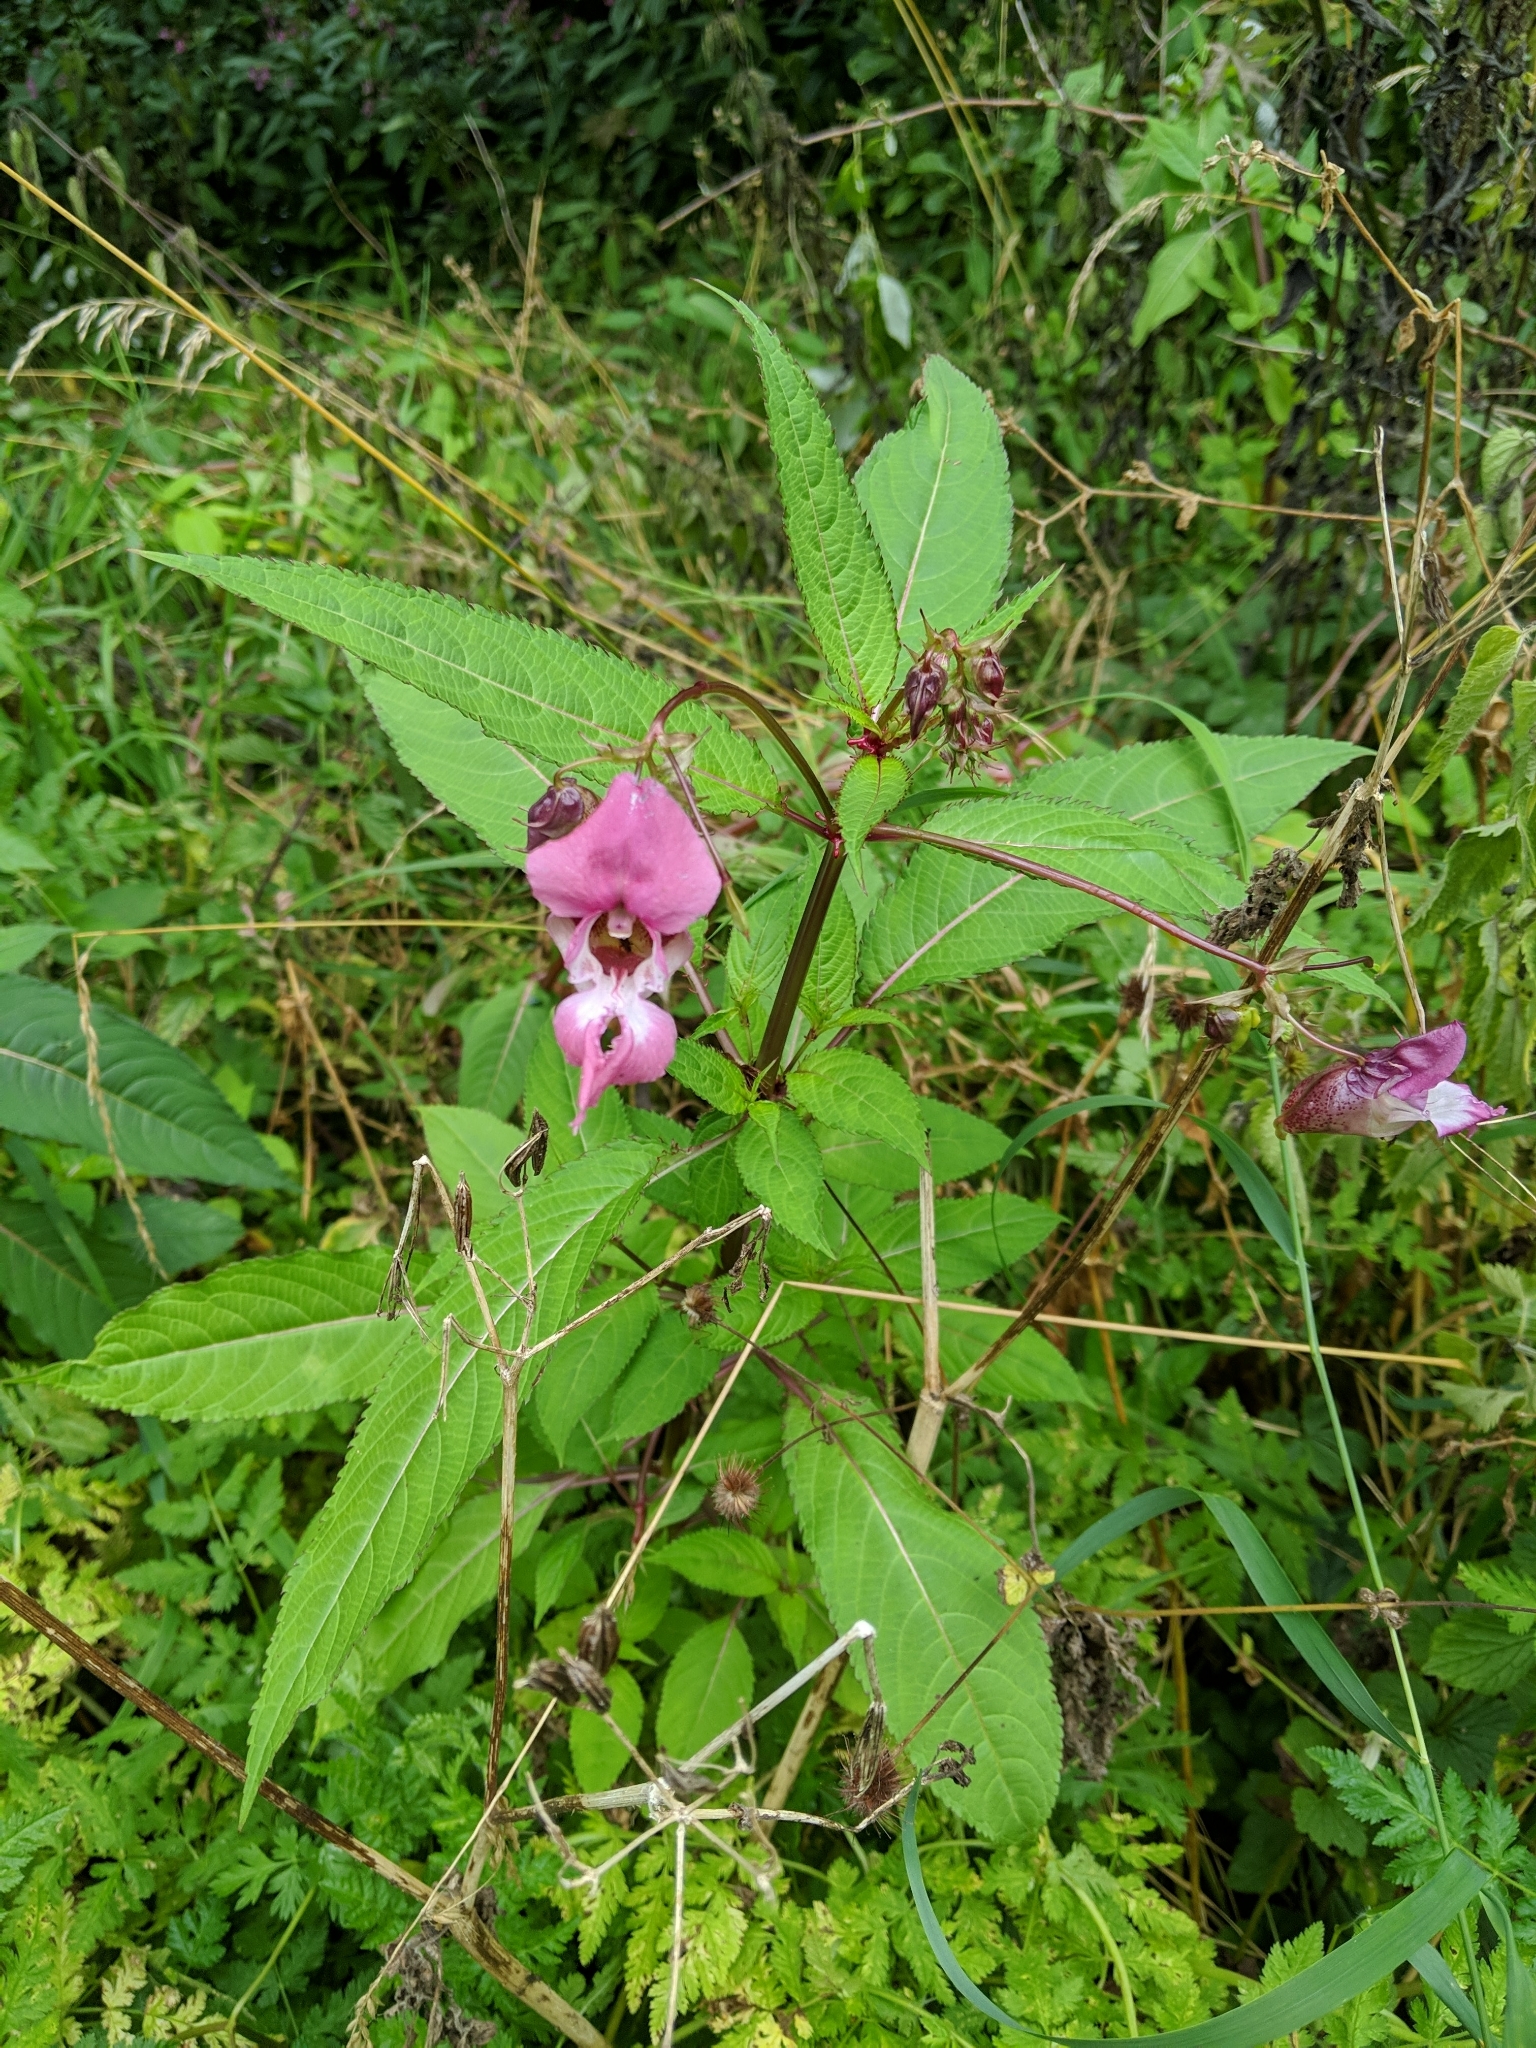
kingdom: Plantae
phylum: Tracheophyta
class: Magnoliopsida
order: Ericales
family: Balsaminaceae
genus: Impatiens
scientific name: Impatiens glandulifera
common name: Himalayan balsam
